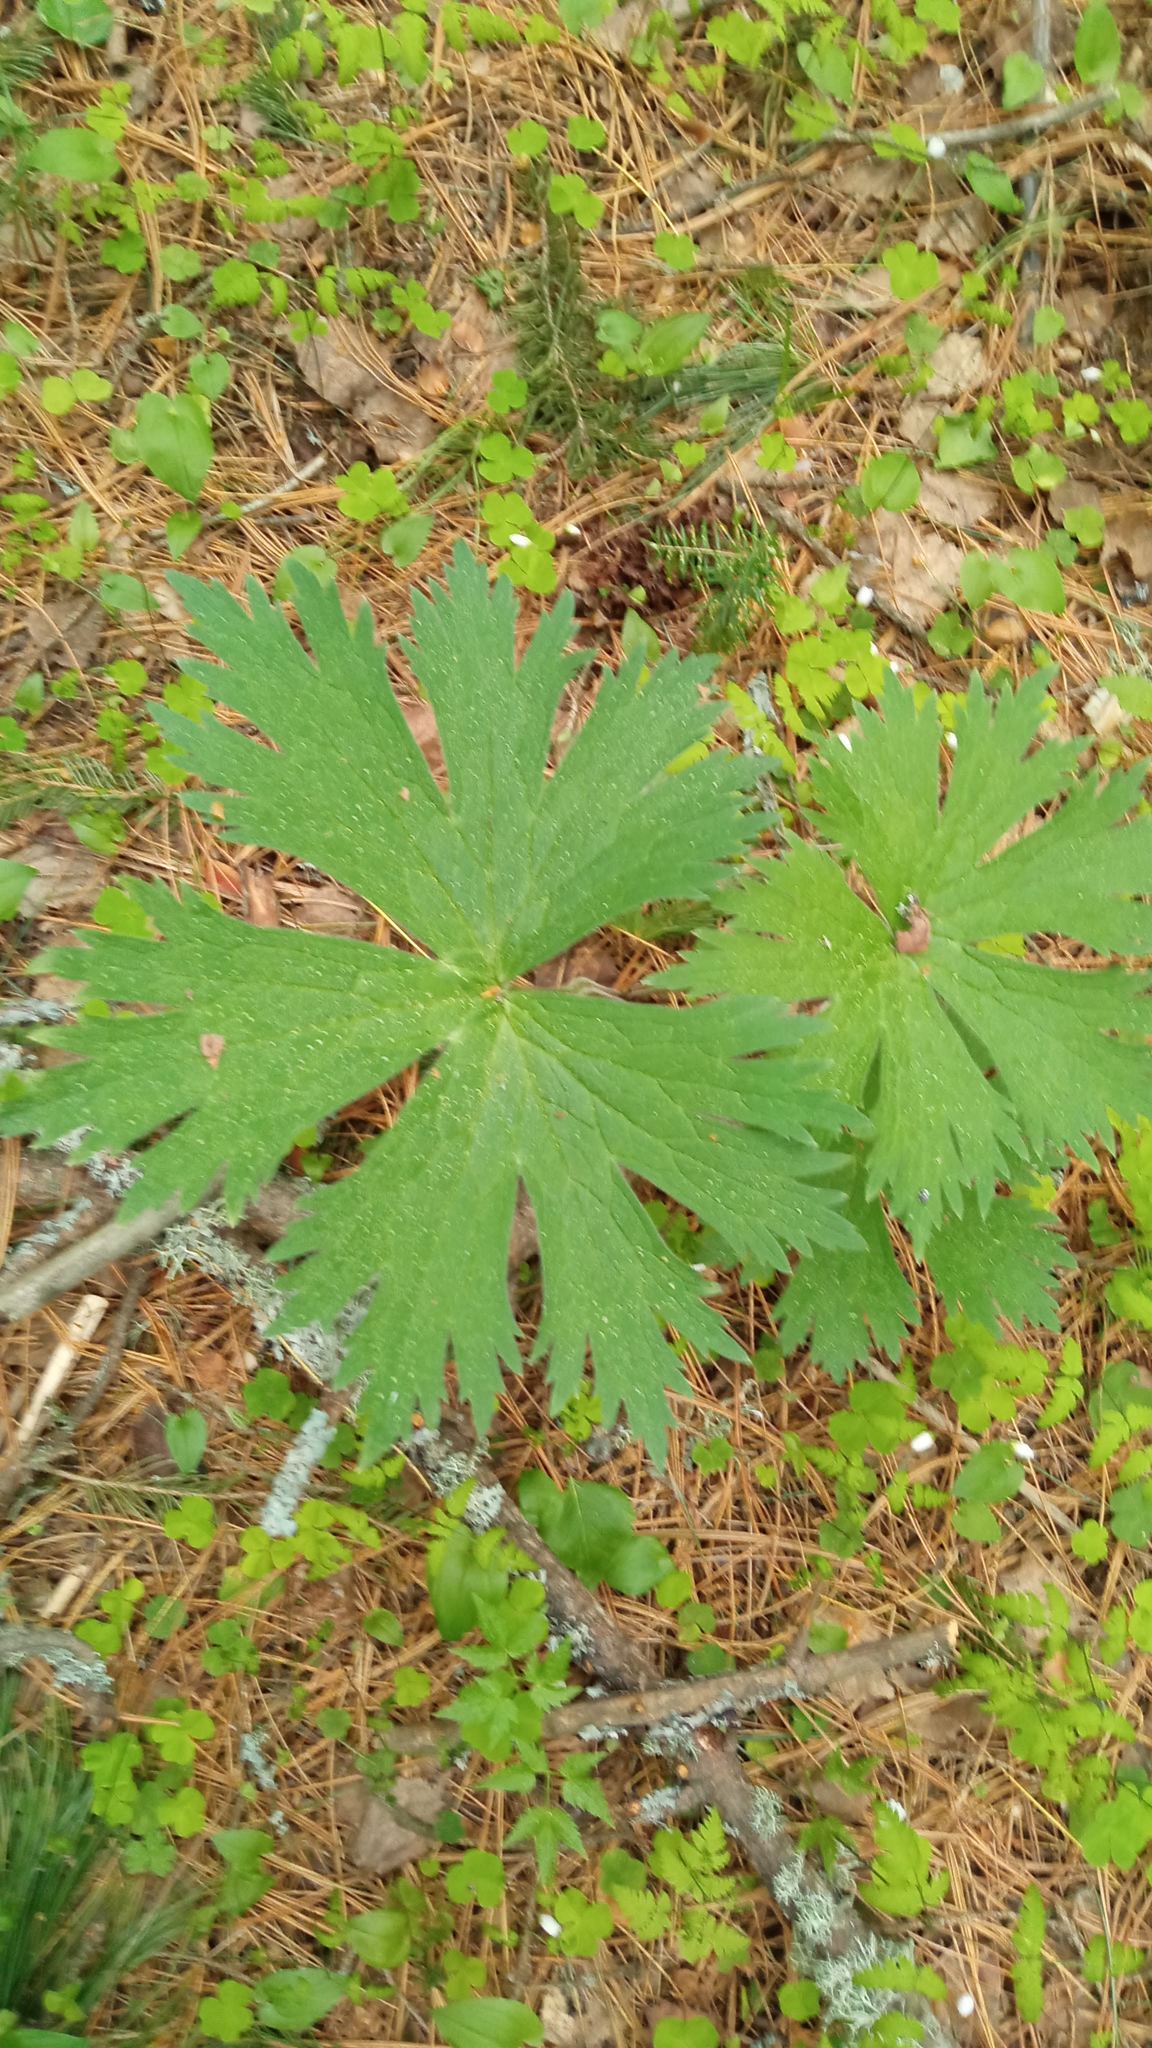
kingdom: Plantae
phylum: Tracheophyta
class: Magnoliopsida
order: Ranunculales
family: Ranunculaceae
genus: Aconitum
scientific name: Aconitum septentrionale
